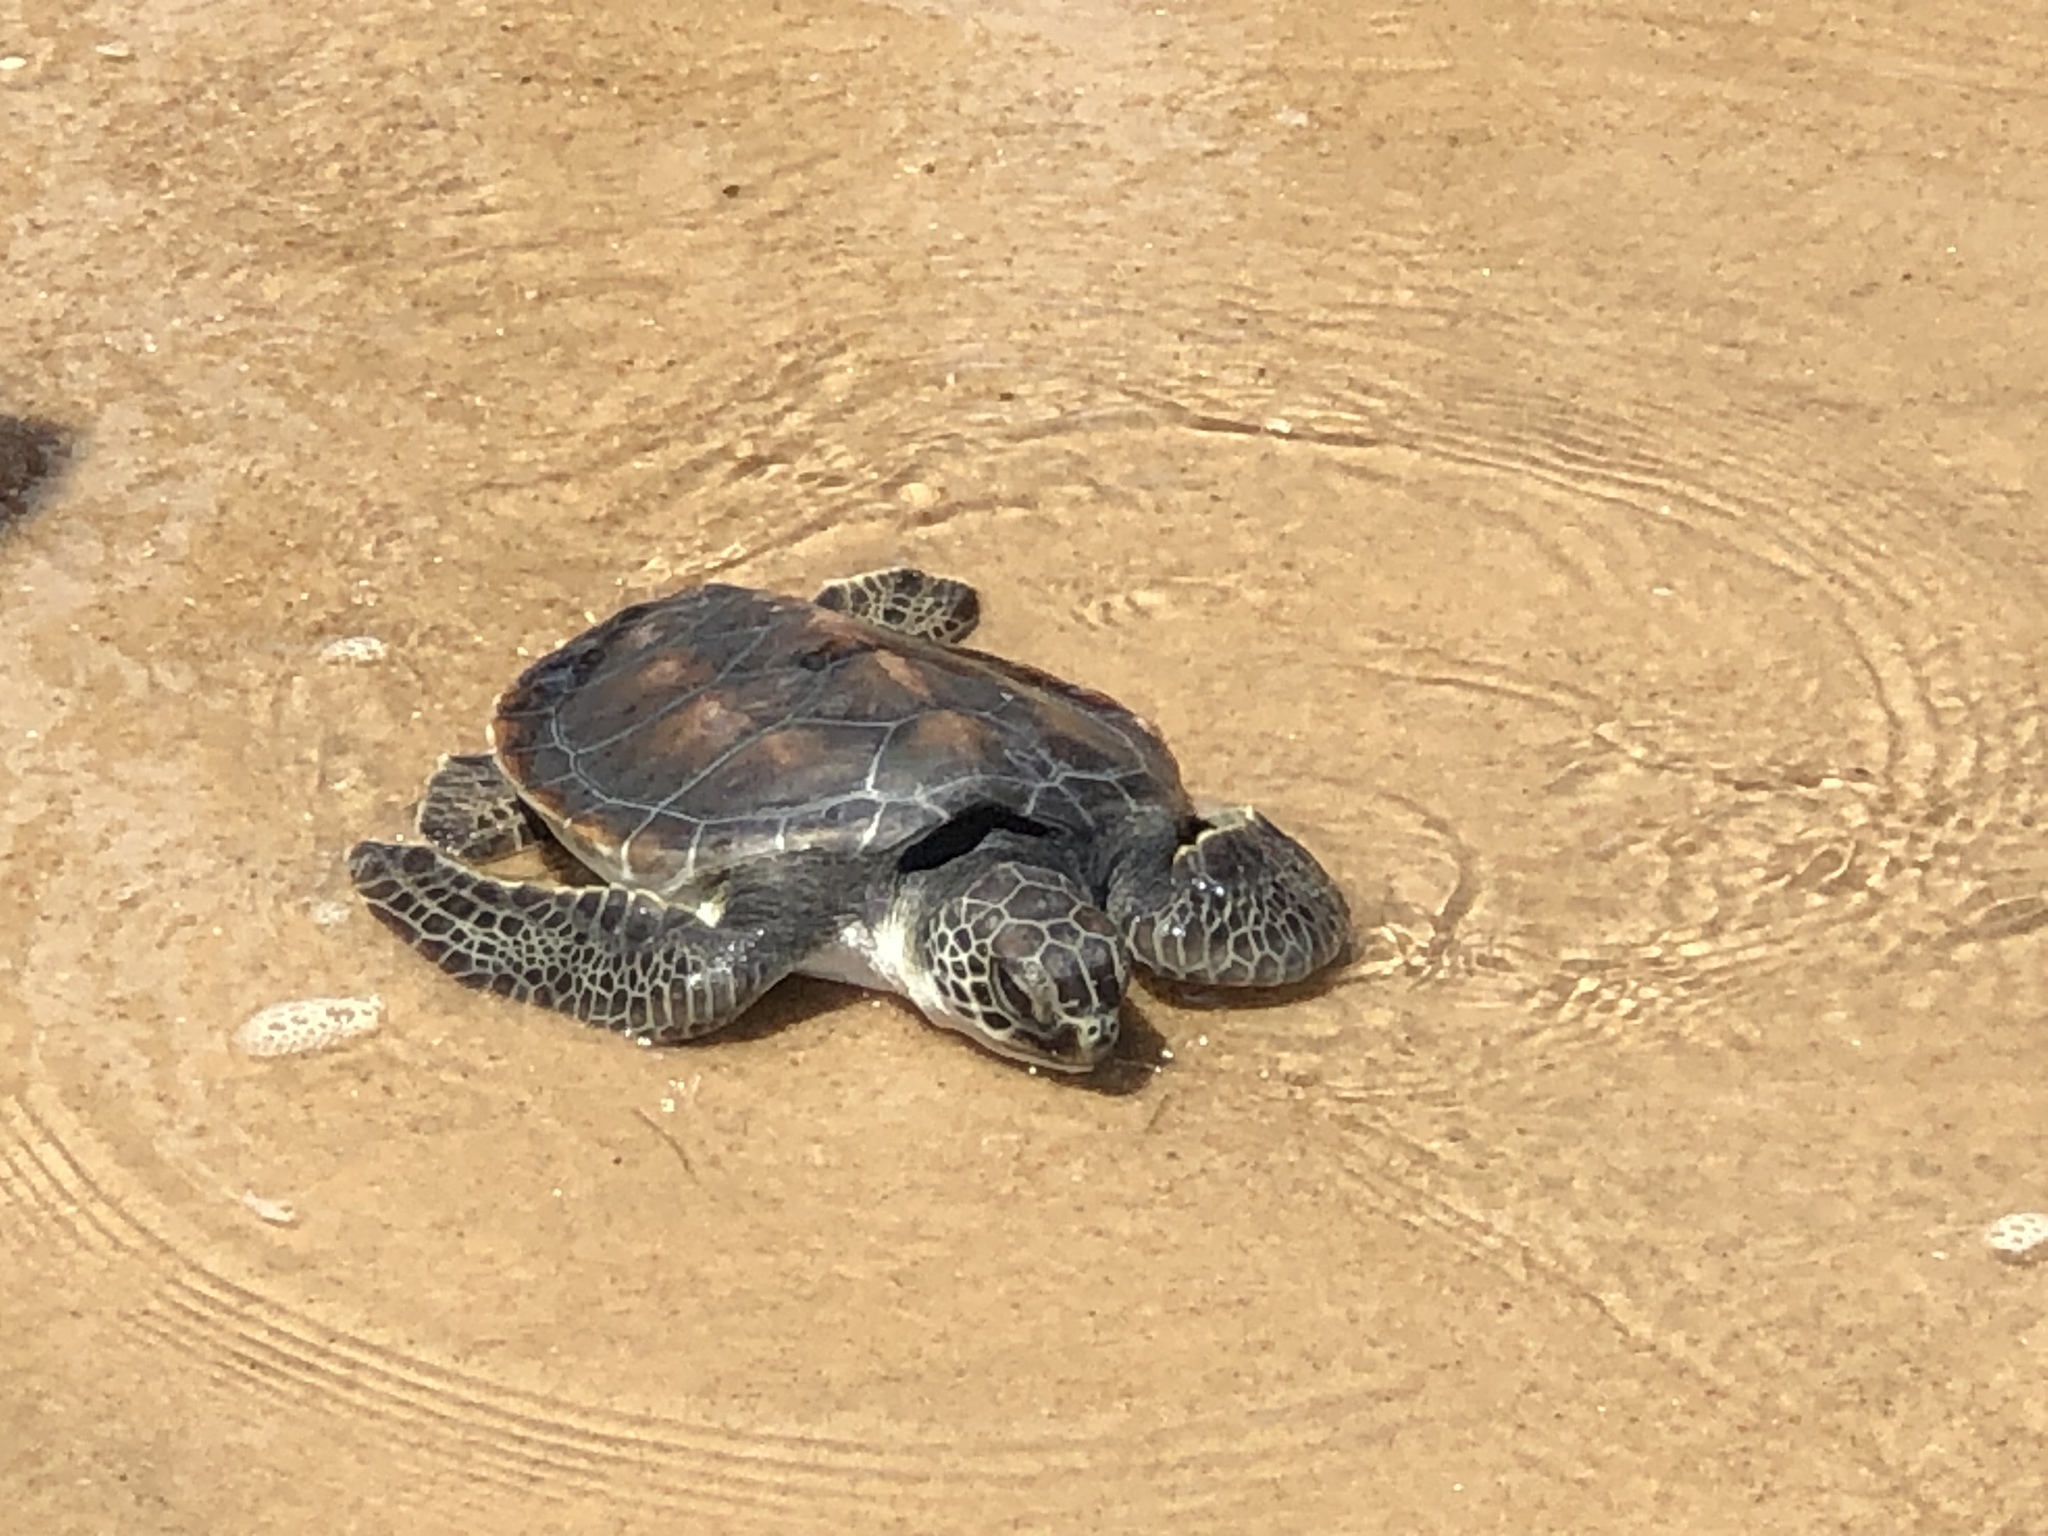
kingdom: Animalia
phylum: Chordata
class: Testudines
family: Cheloniidae
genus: Chelonia
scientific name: Chelonia mydas
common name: Green turtle
